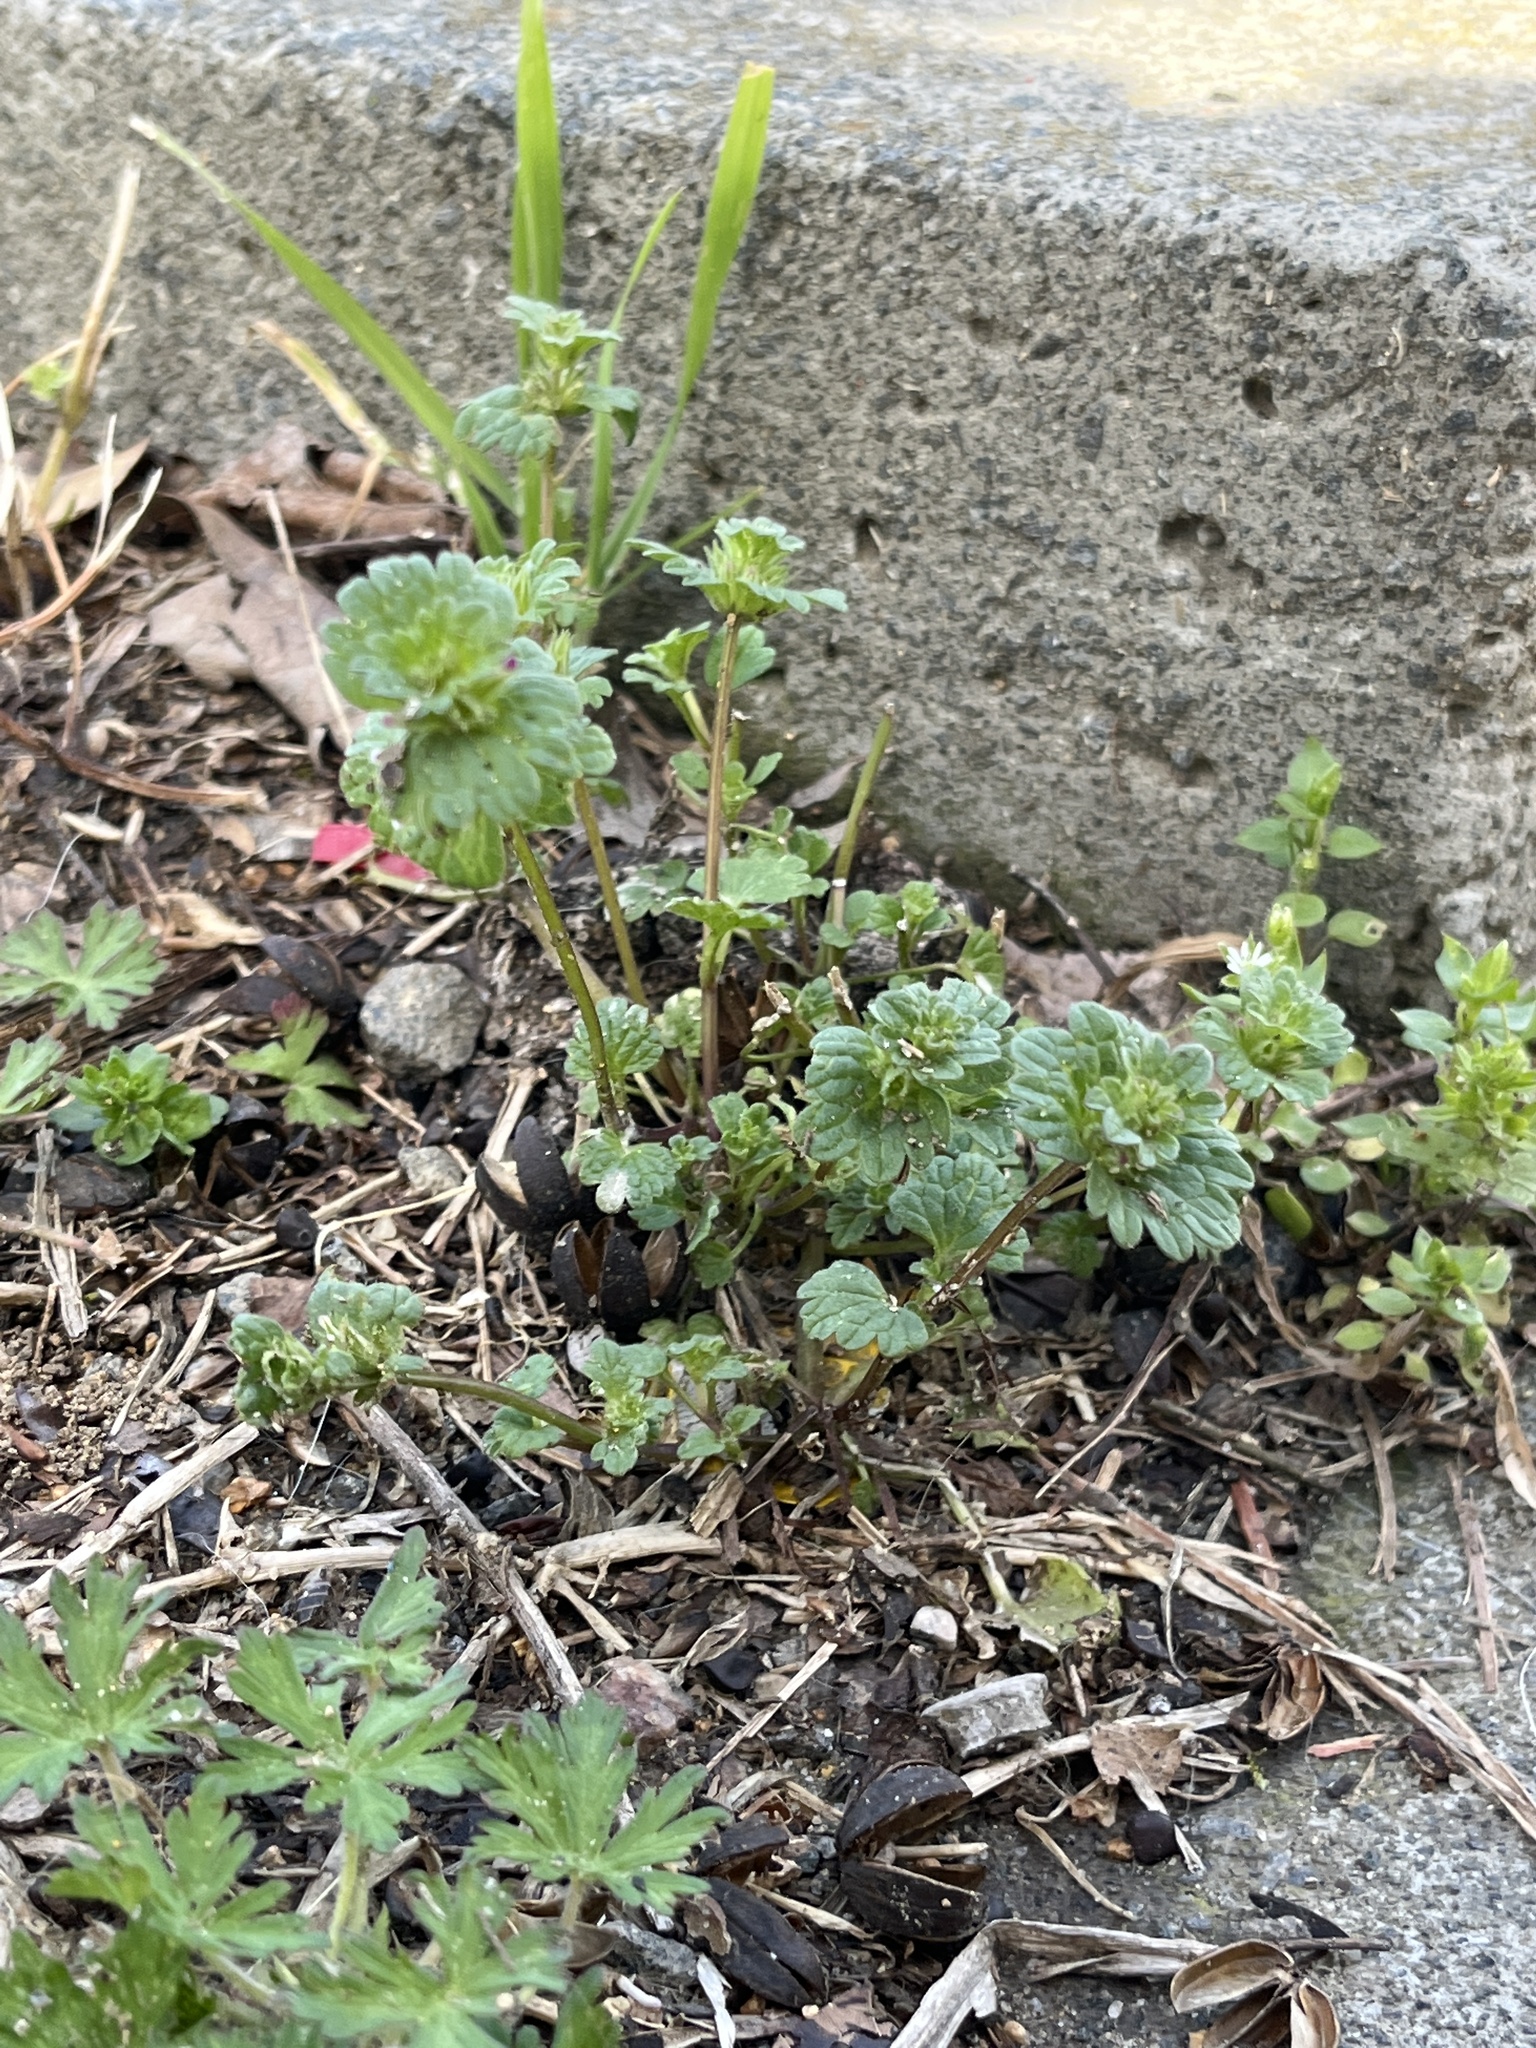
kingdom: Plantae
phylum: Tracheophyta
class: Magnoliopsida
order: Lamiales
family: Lamiaceae
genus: Lamium
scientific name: Lamium amplexicaule
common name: Henbit dead-nettle
